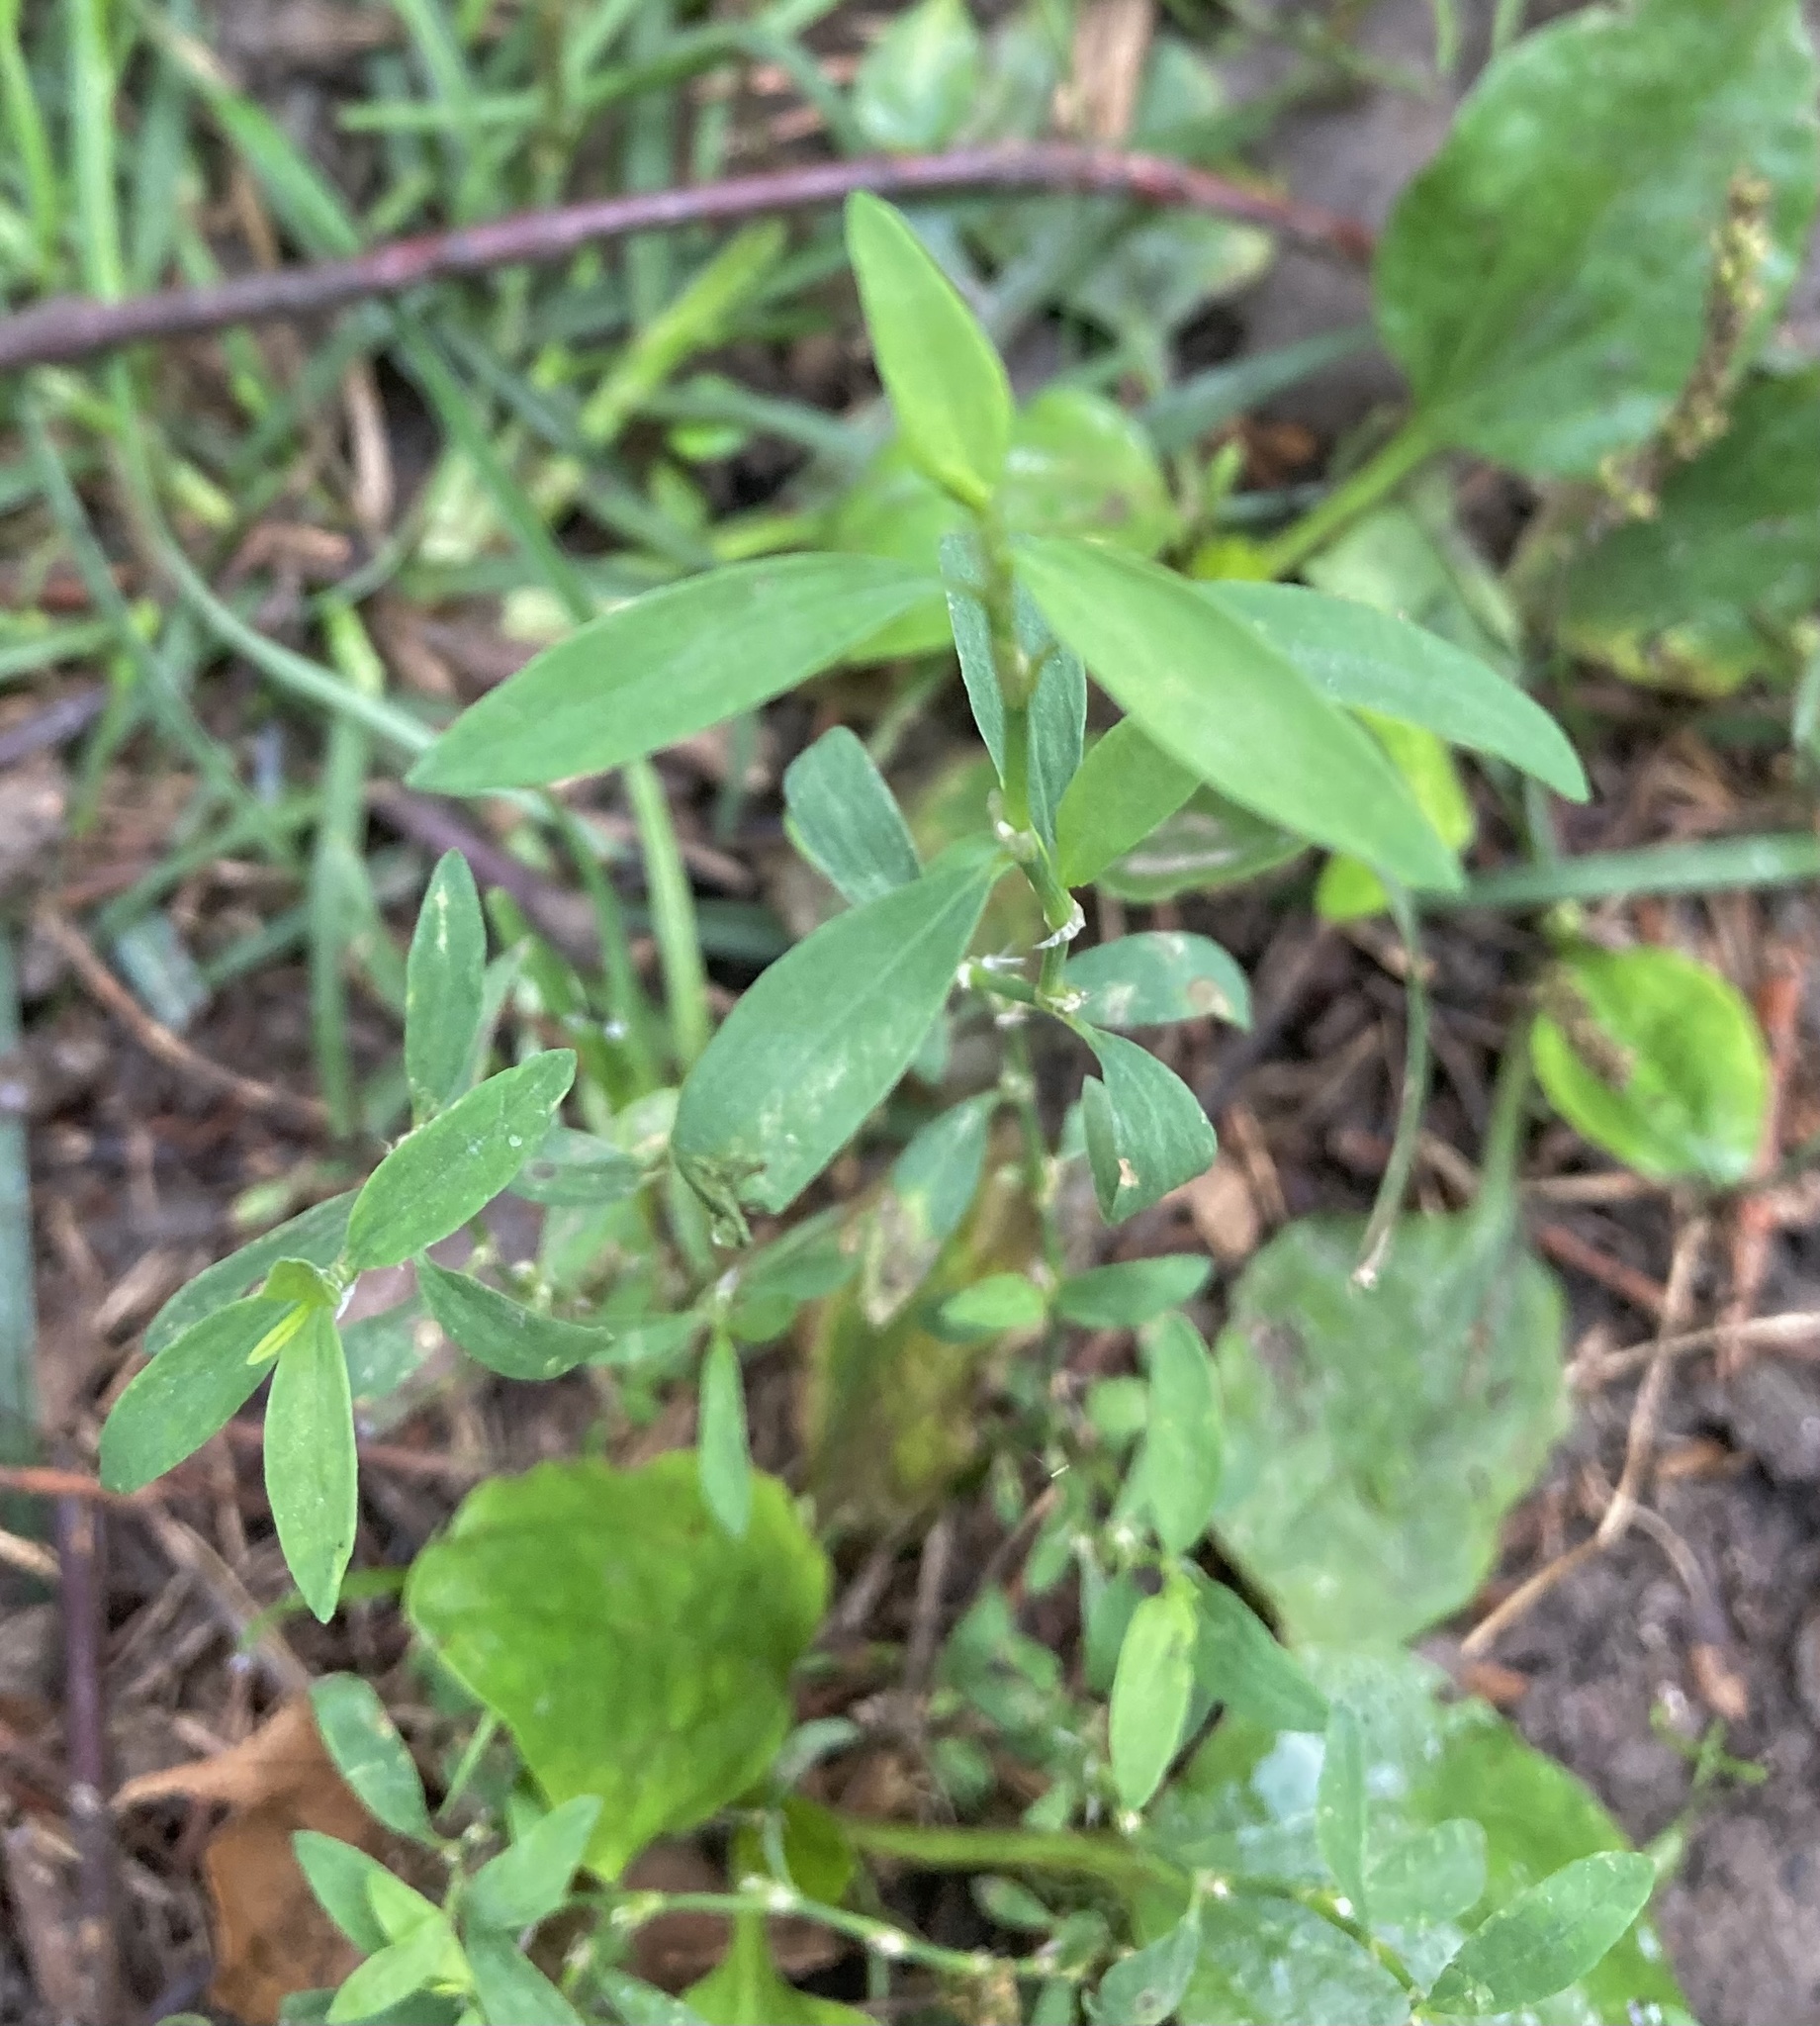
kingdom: Plantae
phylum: Tracheophyta
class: Magnoliopsida
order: Caryophyllales
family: Polygonaceae
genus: Polygonum
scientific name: Polygonum aviculare
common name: Prostrate knotweed
